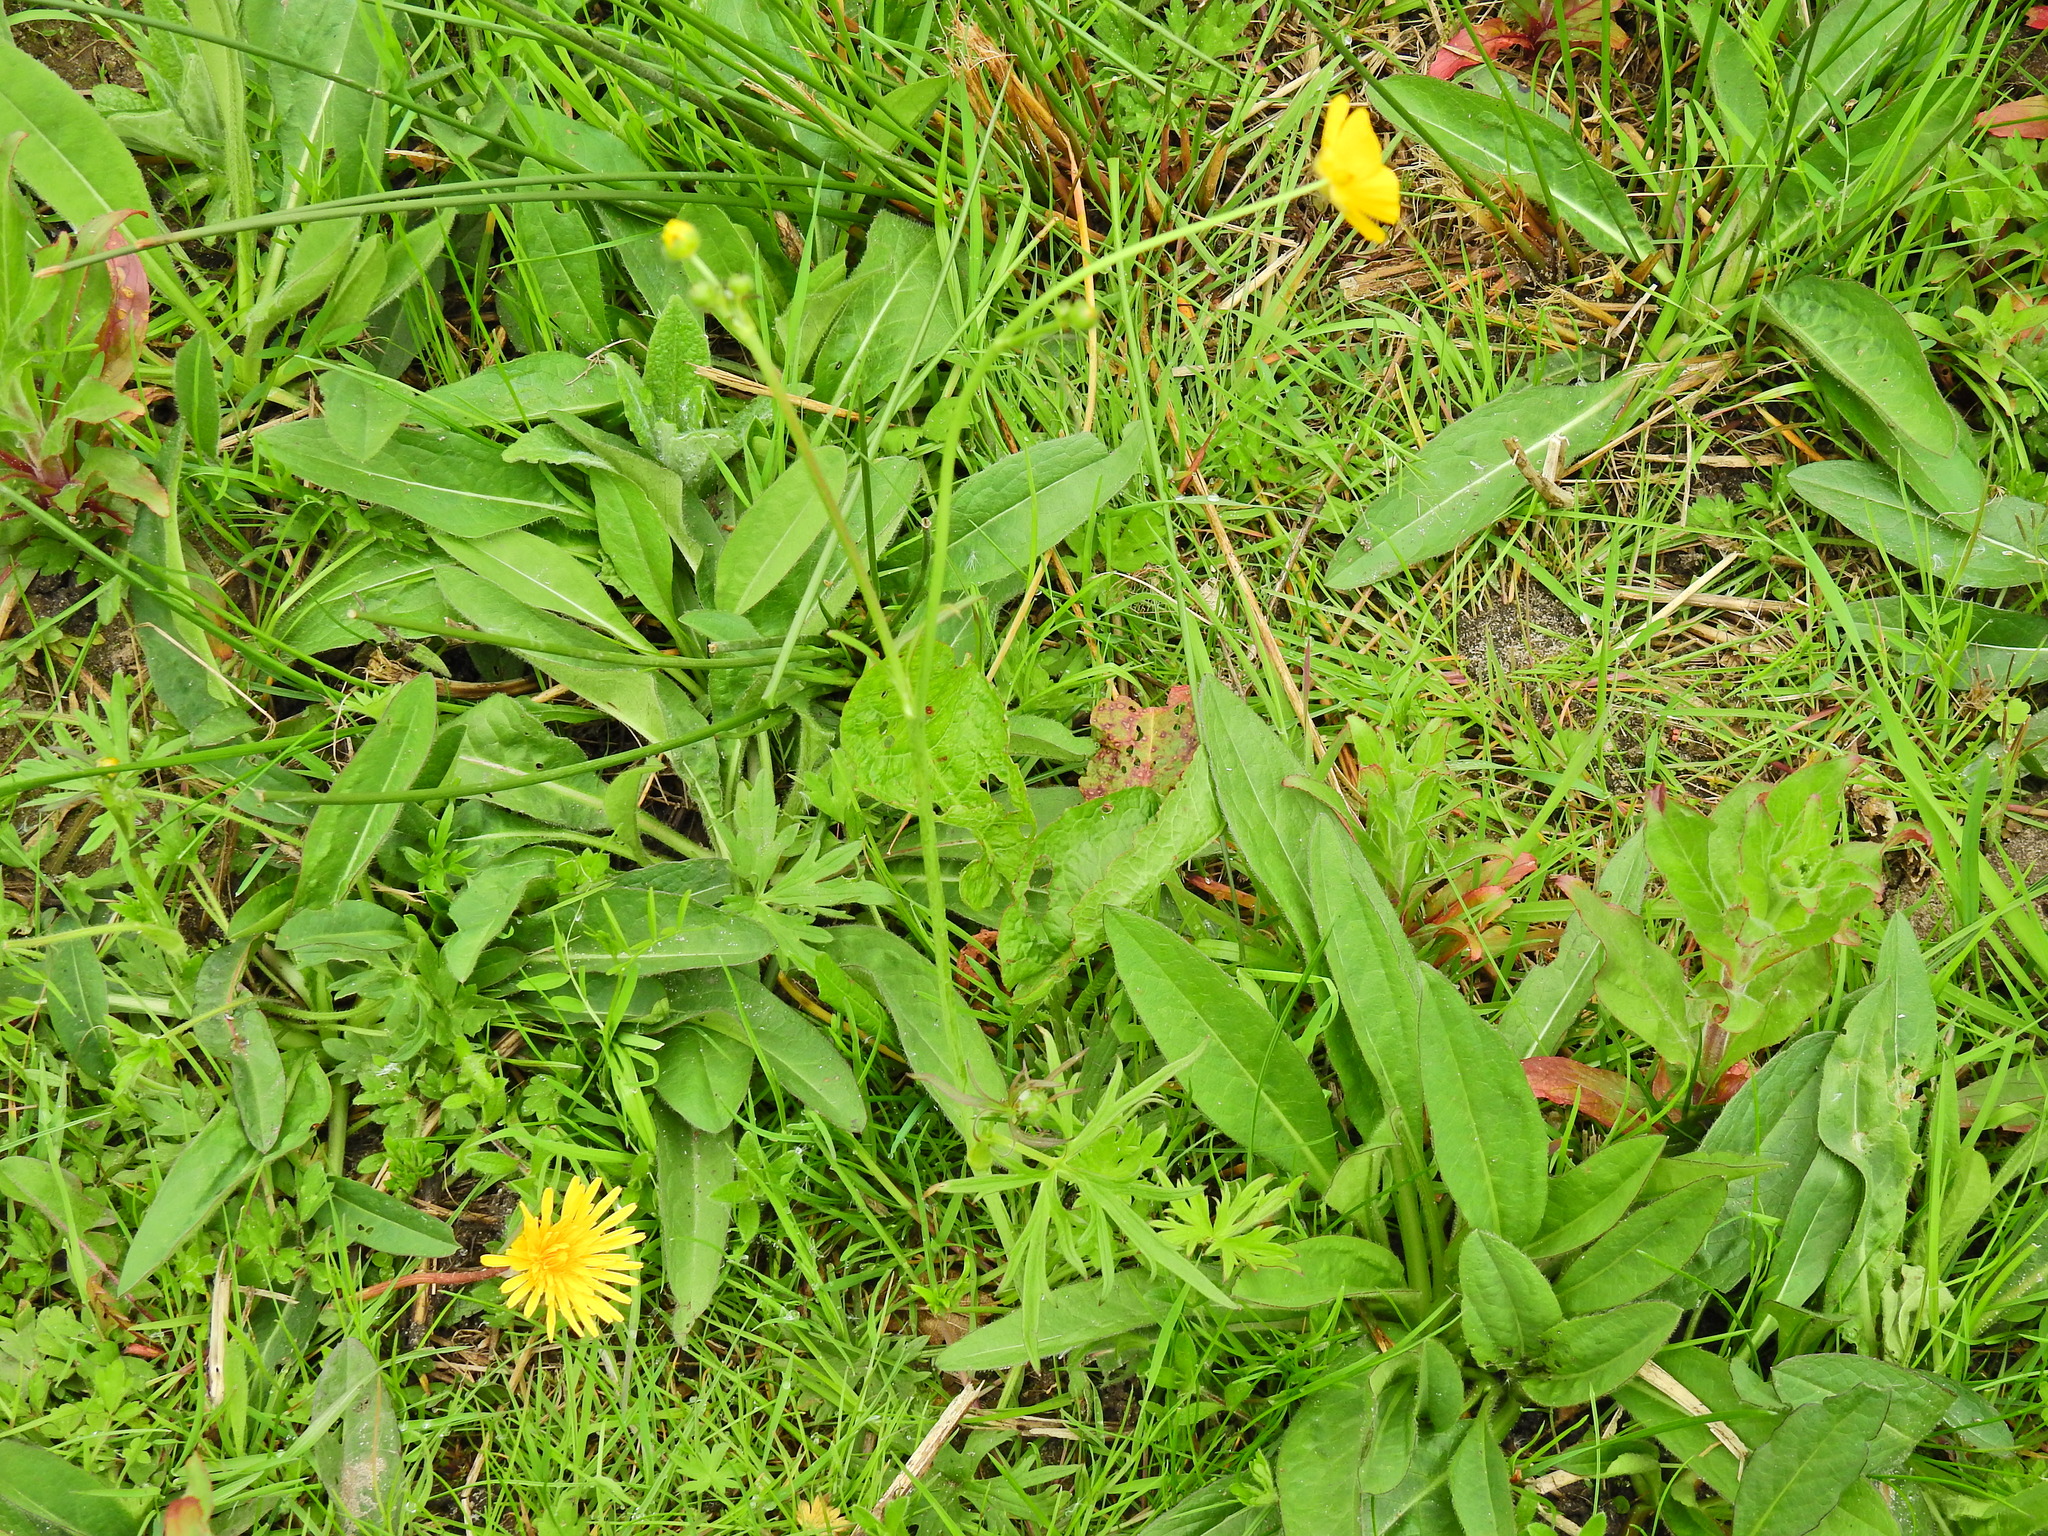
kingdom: Plantae
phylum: Tracheophyta
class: Magnoliopsida
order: Ranunculales
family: Ranunculaceae
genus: Ranunculus
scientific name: Ranunculus acris
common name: Meadow buttercup
